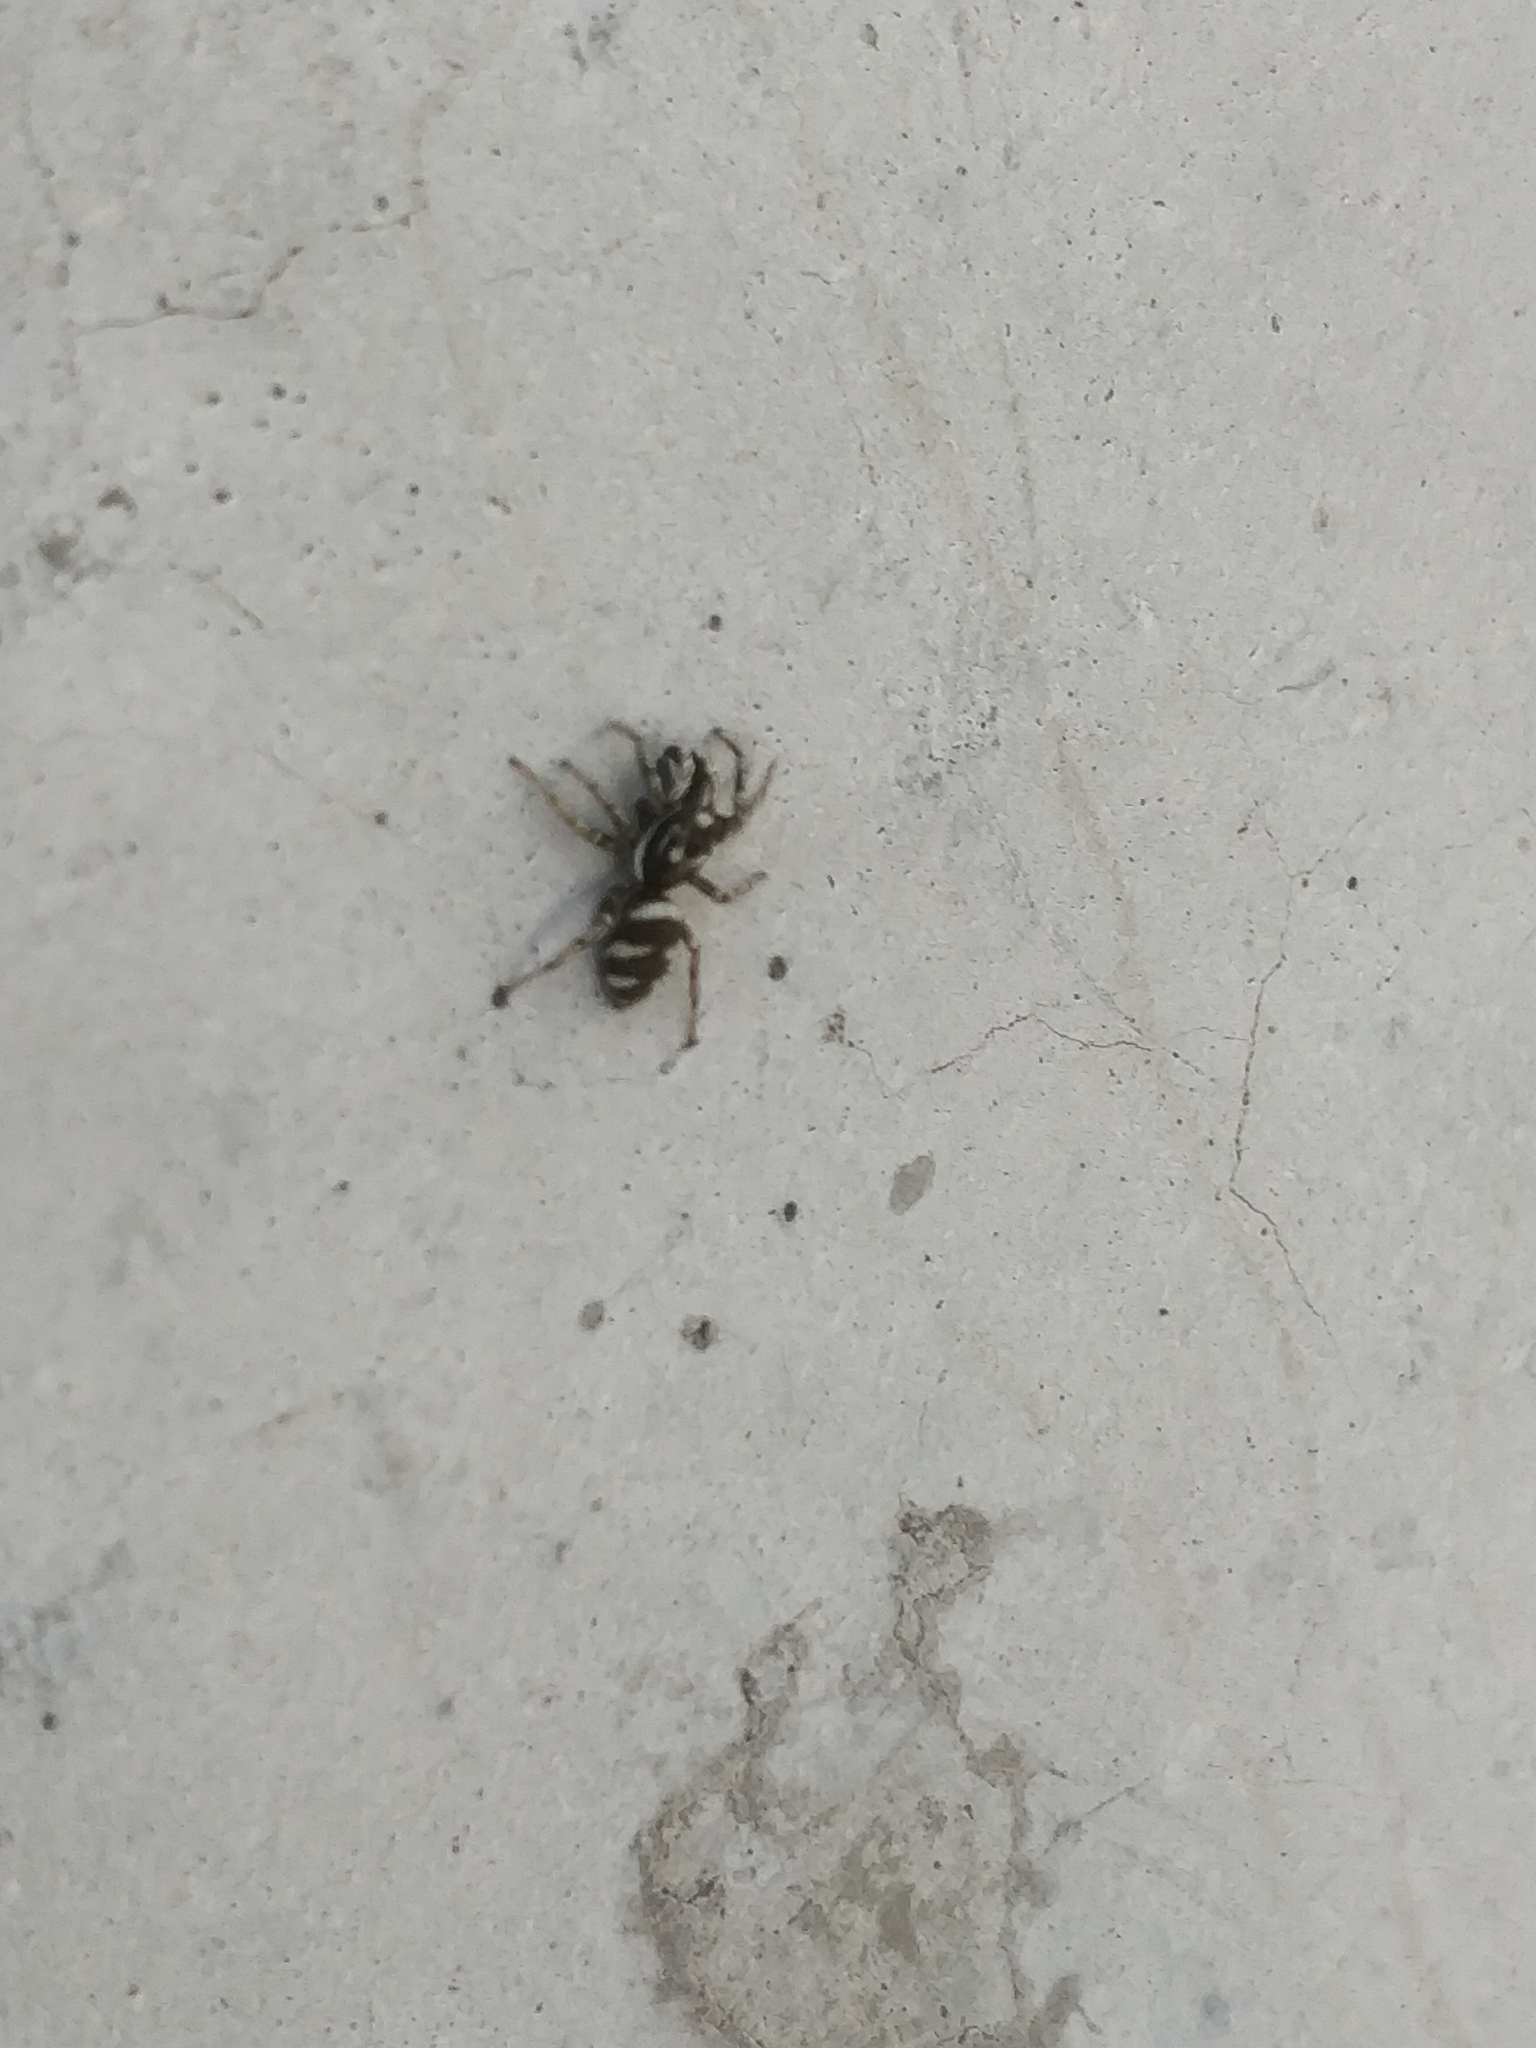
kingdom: Animalia
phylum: Arthropoda
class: Arachnida
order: Araneae
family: Salticidae
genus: Salticus
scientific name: Salticus scenicus
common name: Zebra jumper
